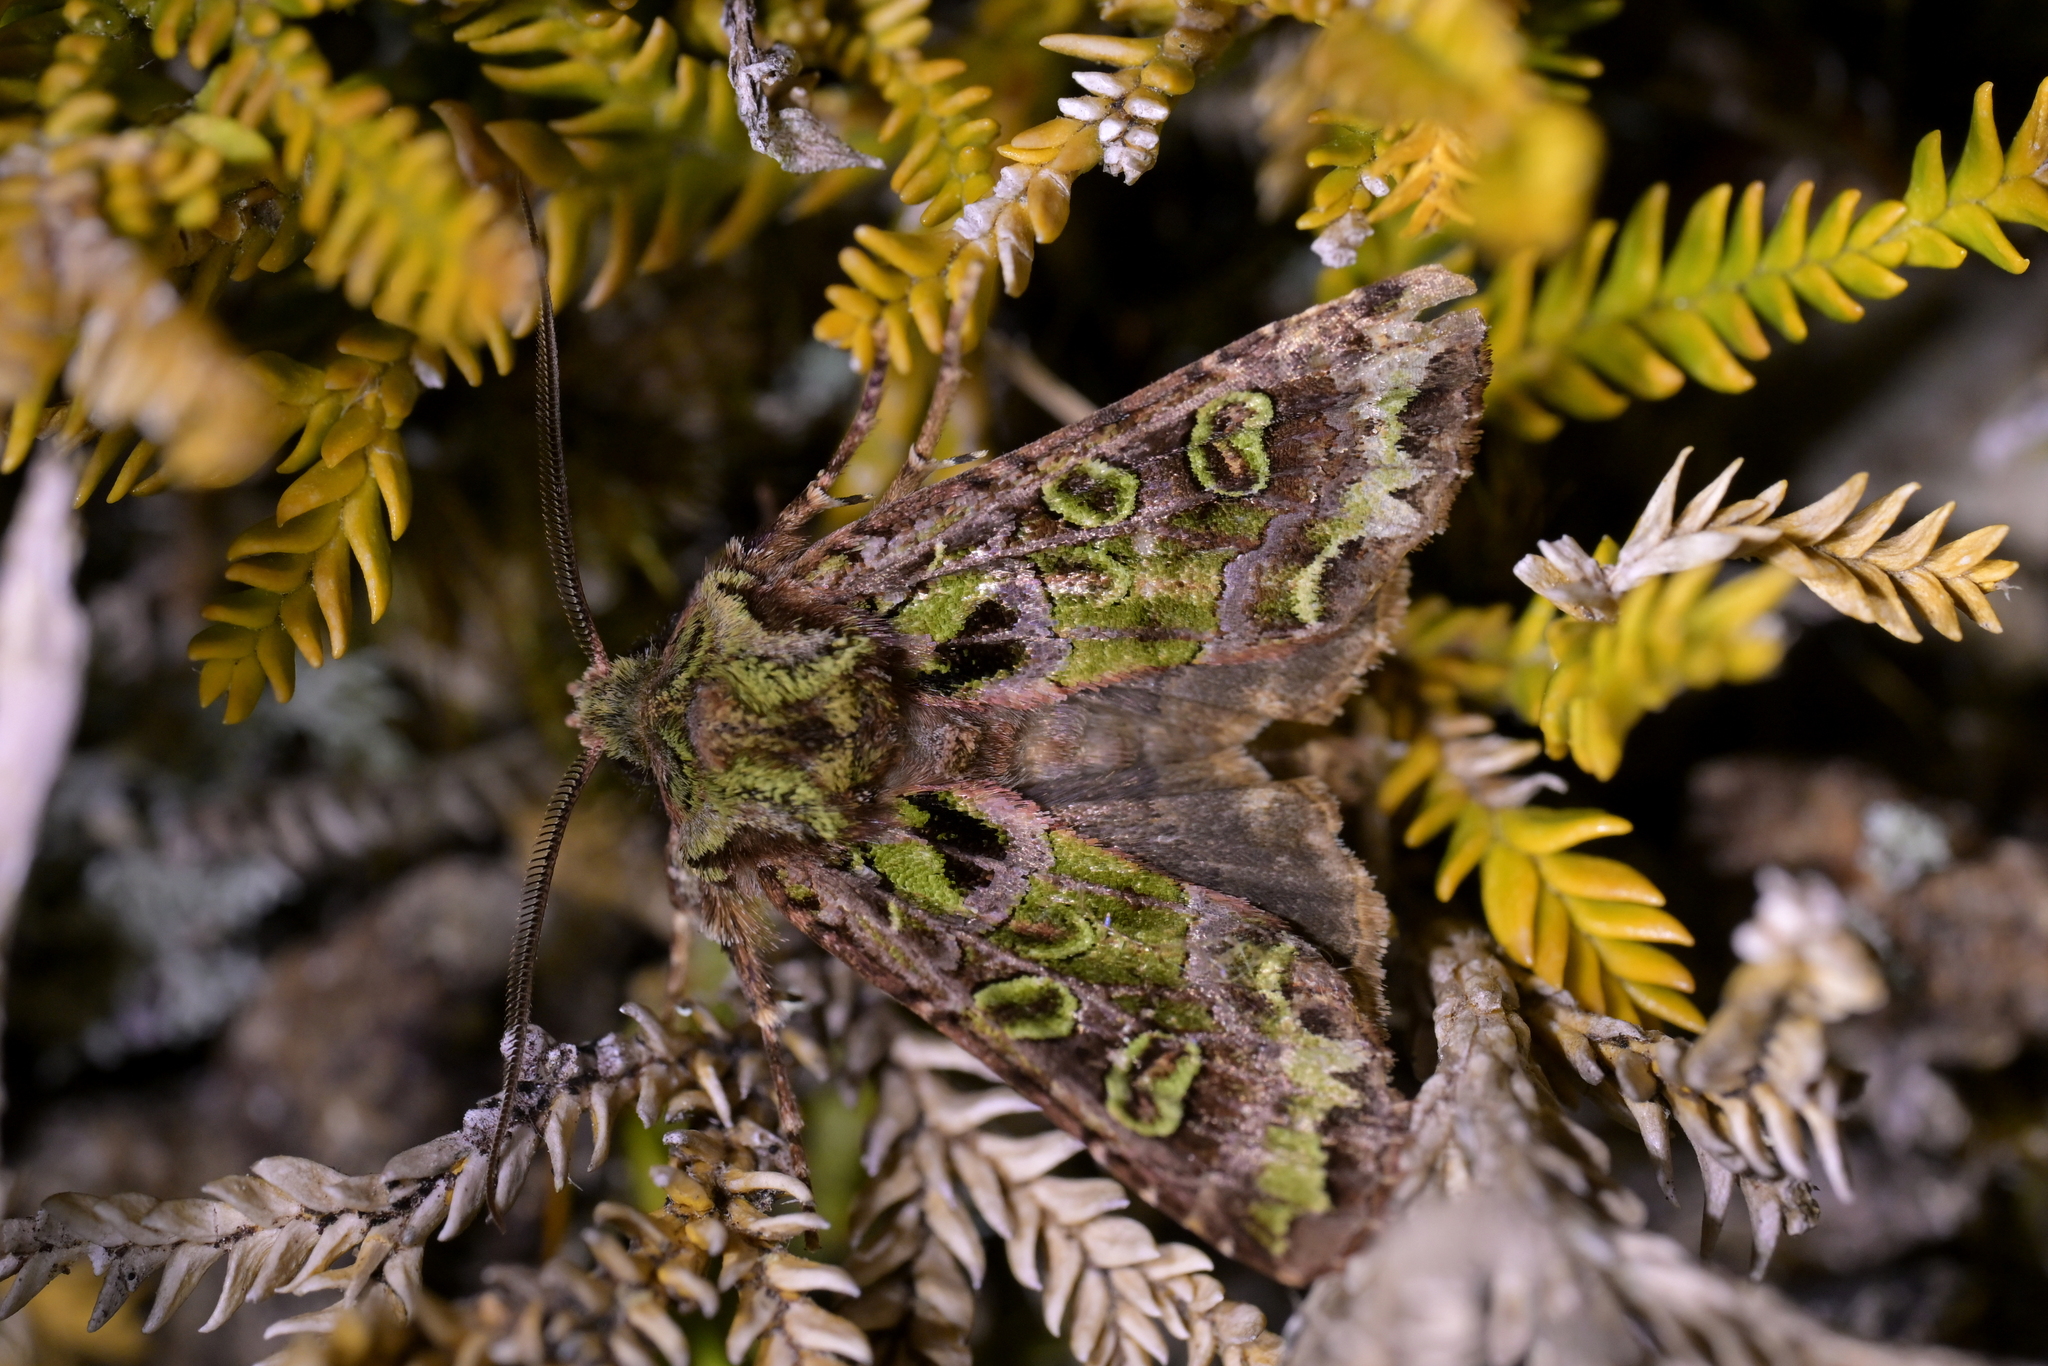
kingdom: Animalia
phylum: Arthropoda
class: Insecta
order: Lepidoptera
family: Noctuidae
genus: Ichneutica
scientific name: Ichneutica chlorodonta
